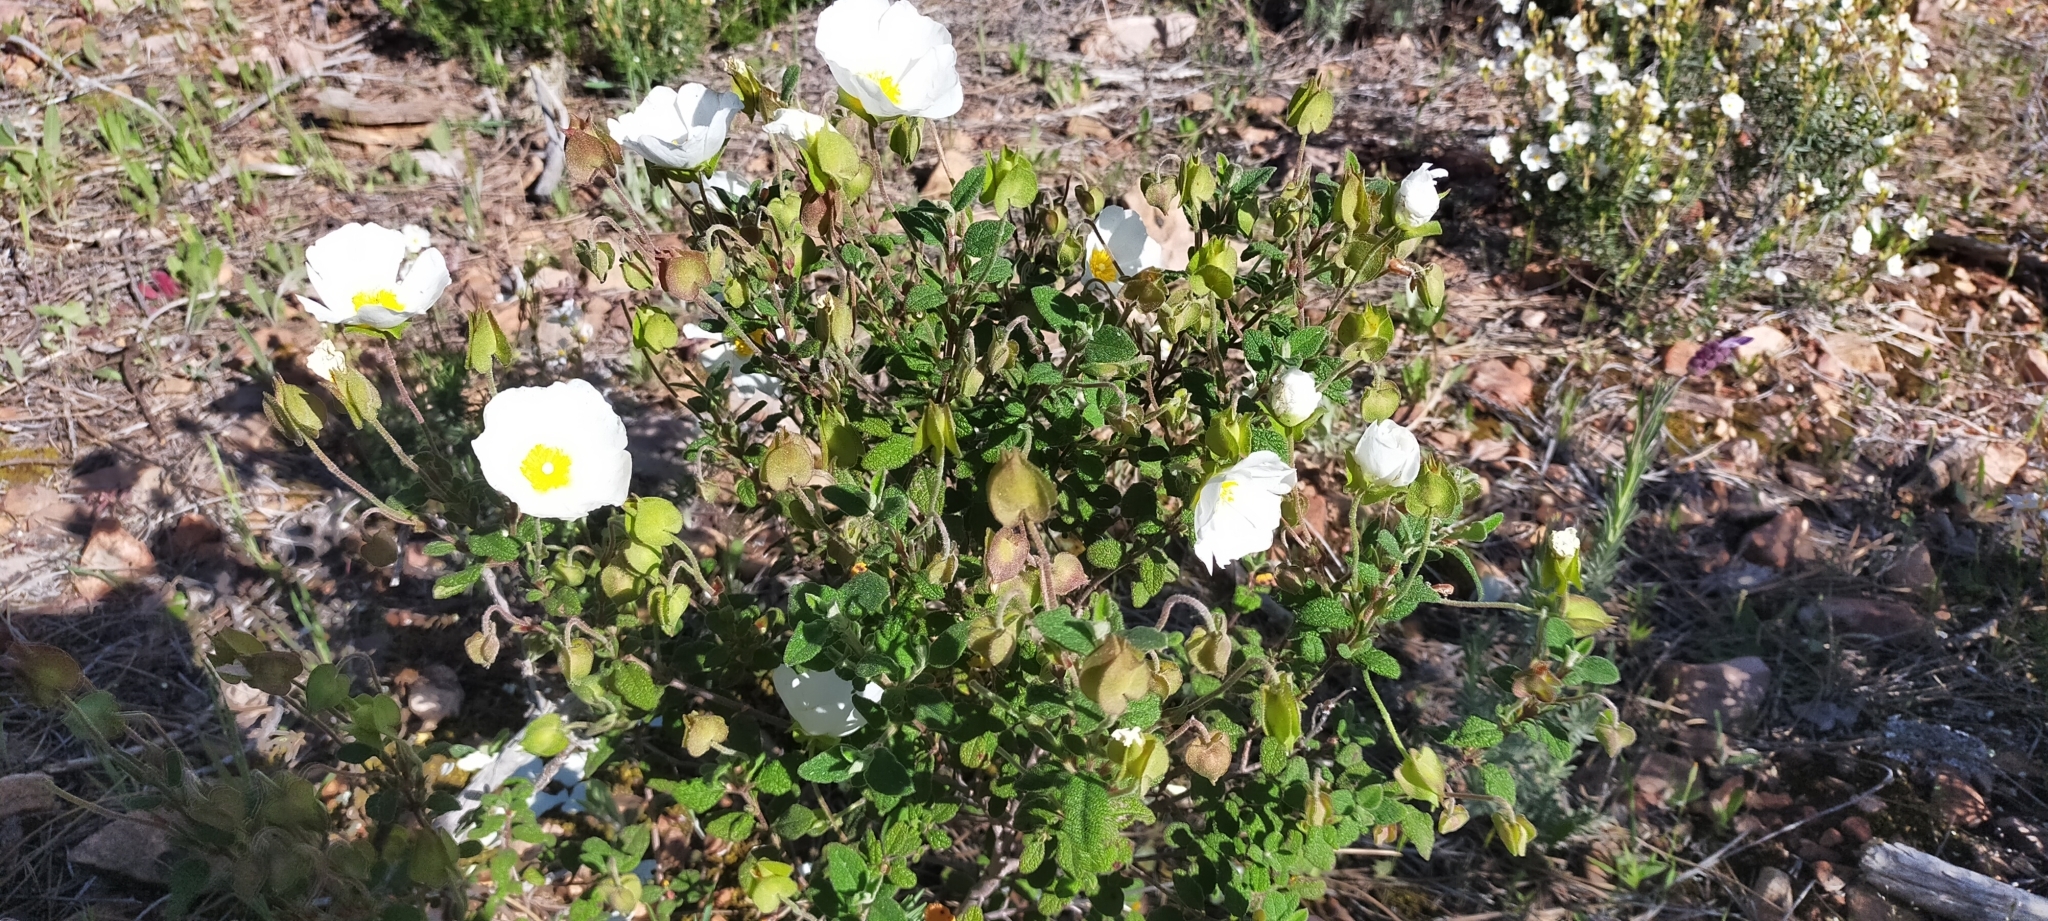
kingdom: Plantae
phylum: Tracheophyta
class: Magnoliopsida
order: Malvales
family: Cistaceae
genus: Cistus
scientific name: Cistus salviifolius
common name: Salvia cistus
